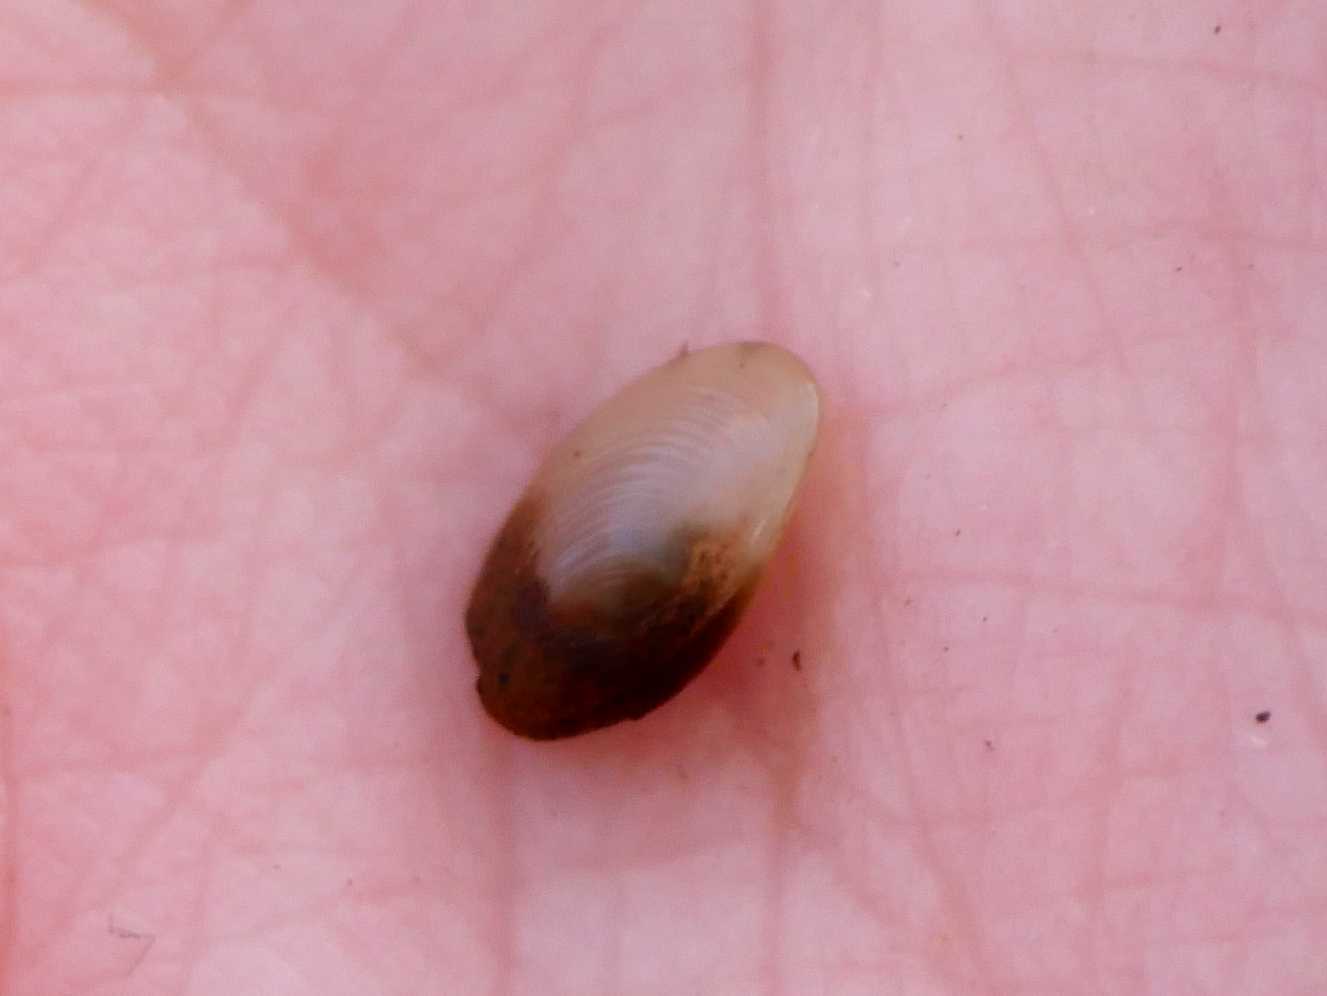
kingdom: Animalia
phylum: Mollusca
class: Bivalvia
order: Sphaeriida
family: Sphaeriidae
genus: Pisidium
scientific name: Pisidium amnicum
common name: Greater european peaclam
